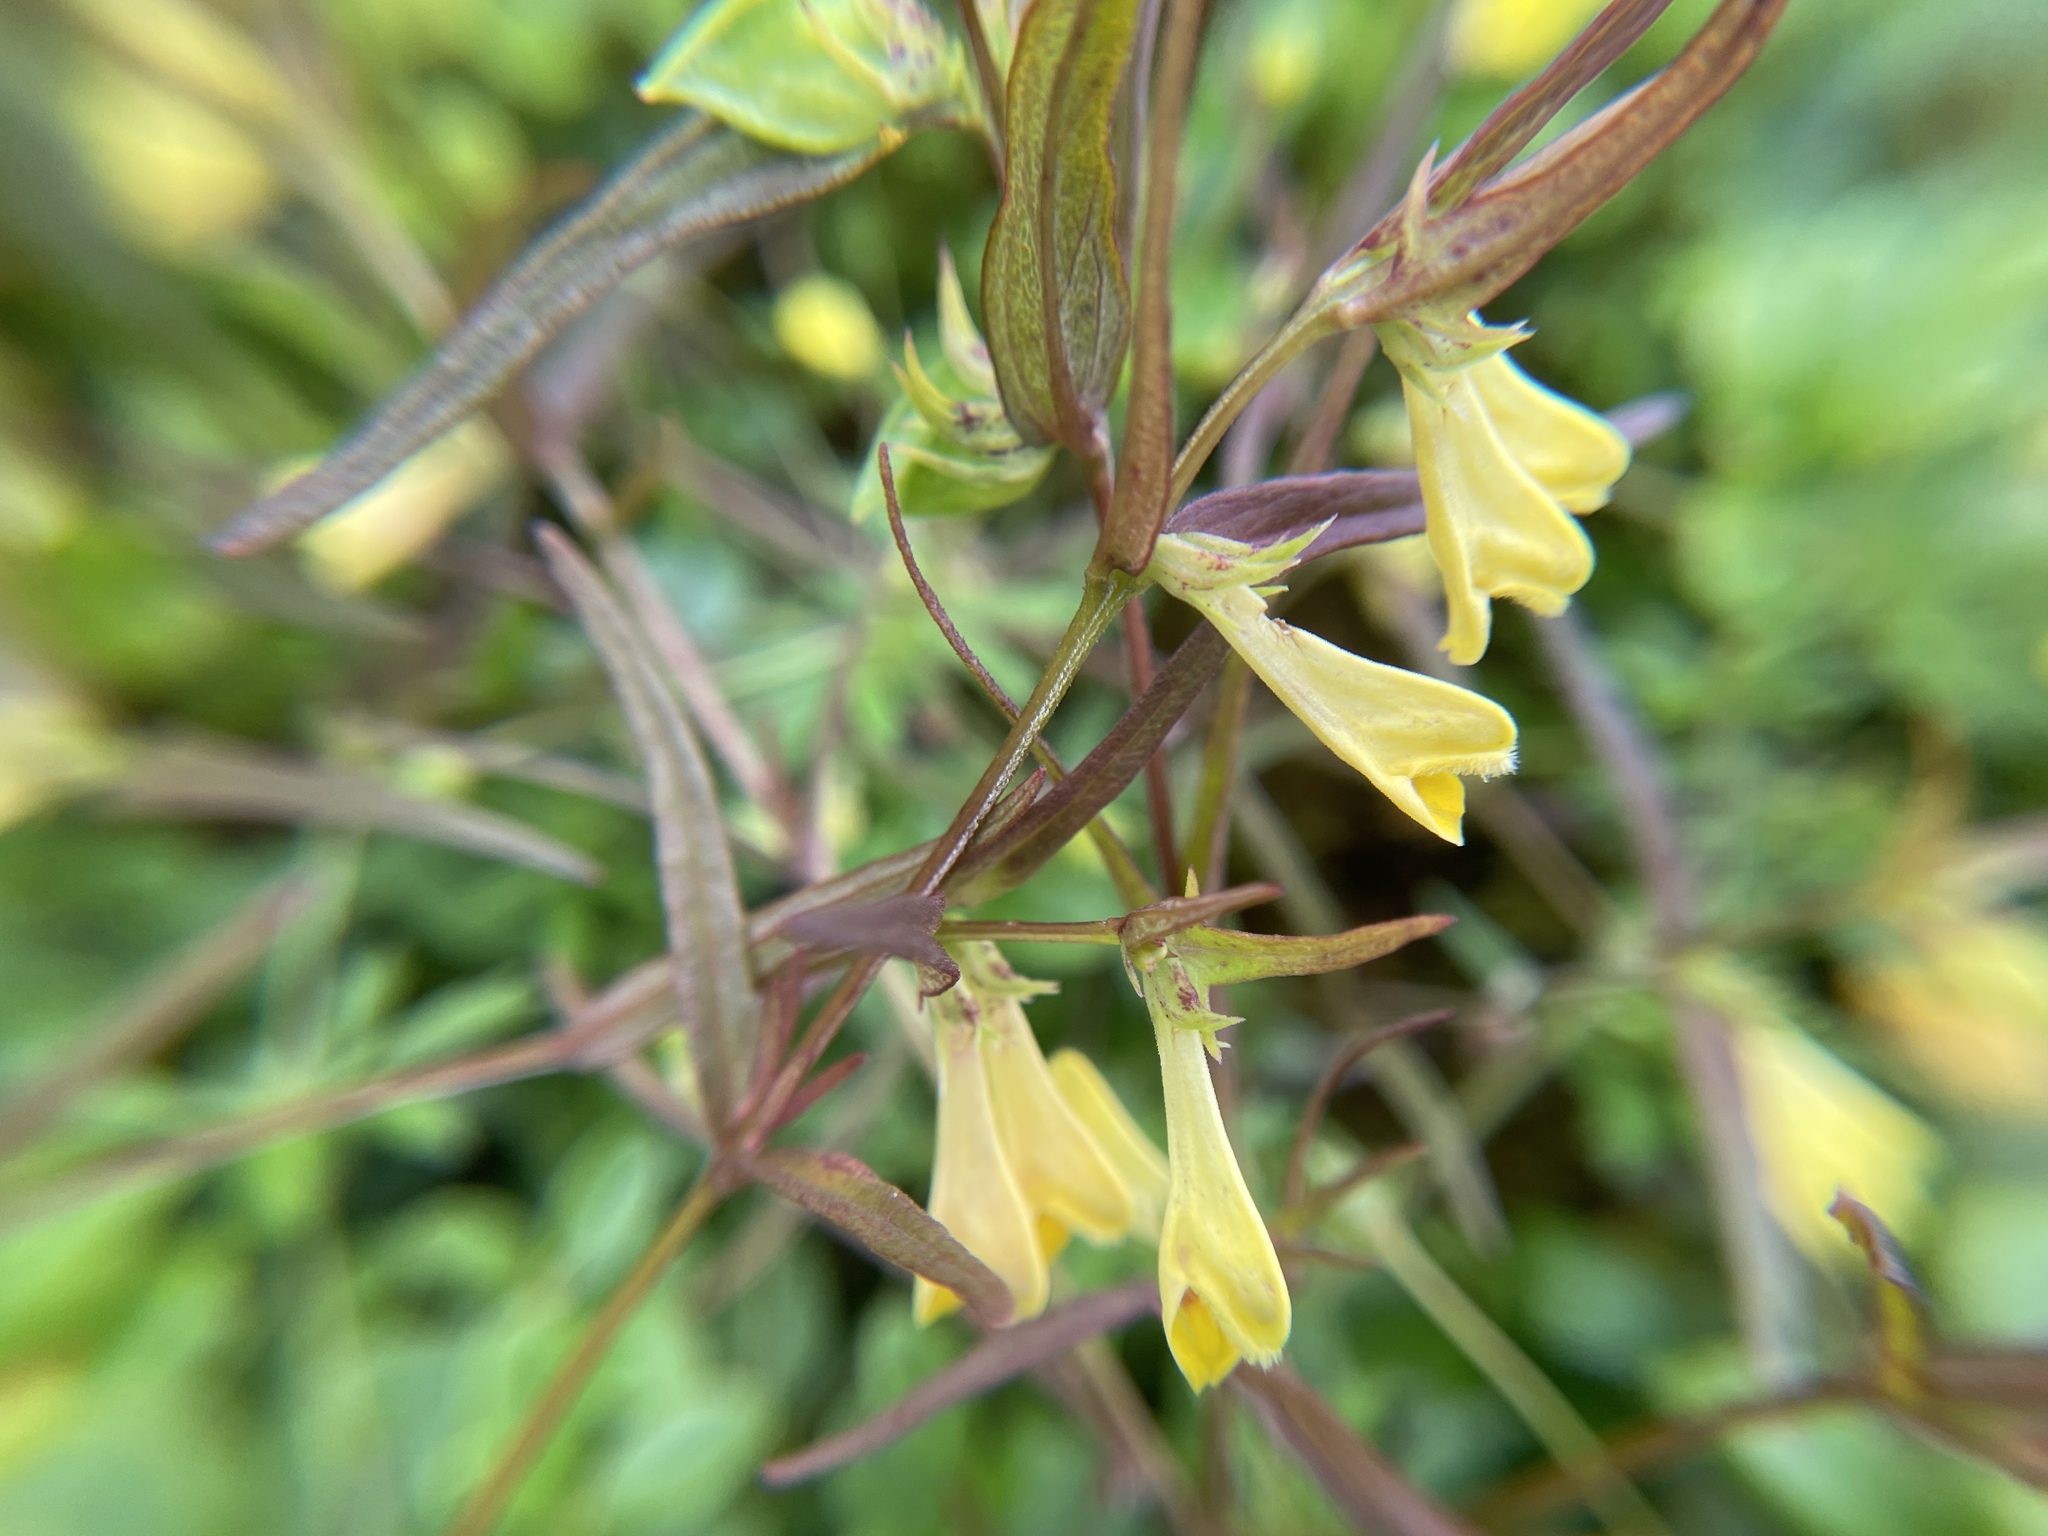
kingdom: Plantae
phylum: Tracheophyta
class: Magnoliopsida
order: Lamiales
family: Orobanchaceae
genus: Melampyrum
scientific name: Melampyrum pratense
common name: Common cow-wheat
